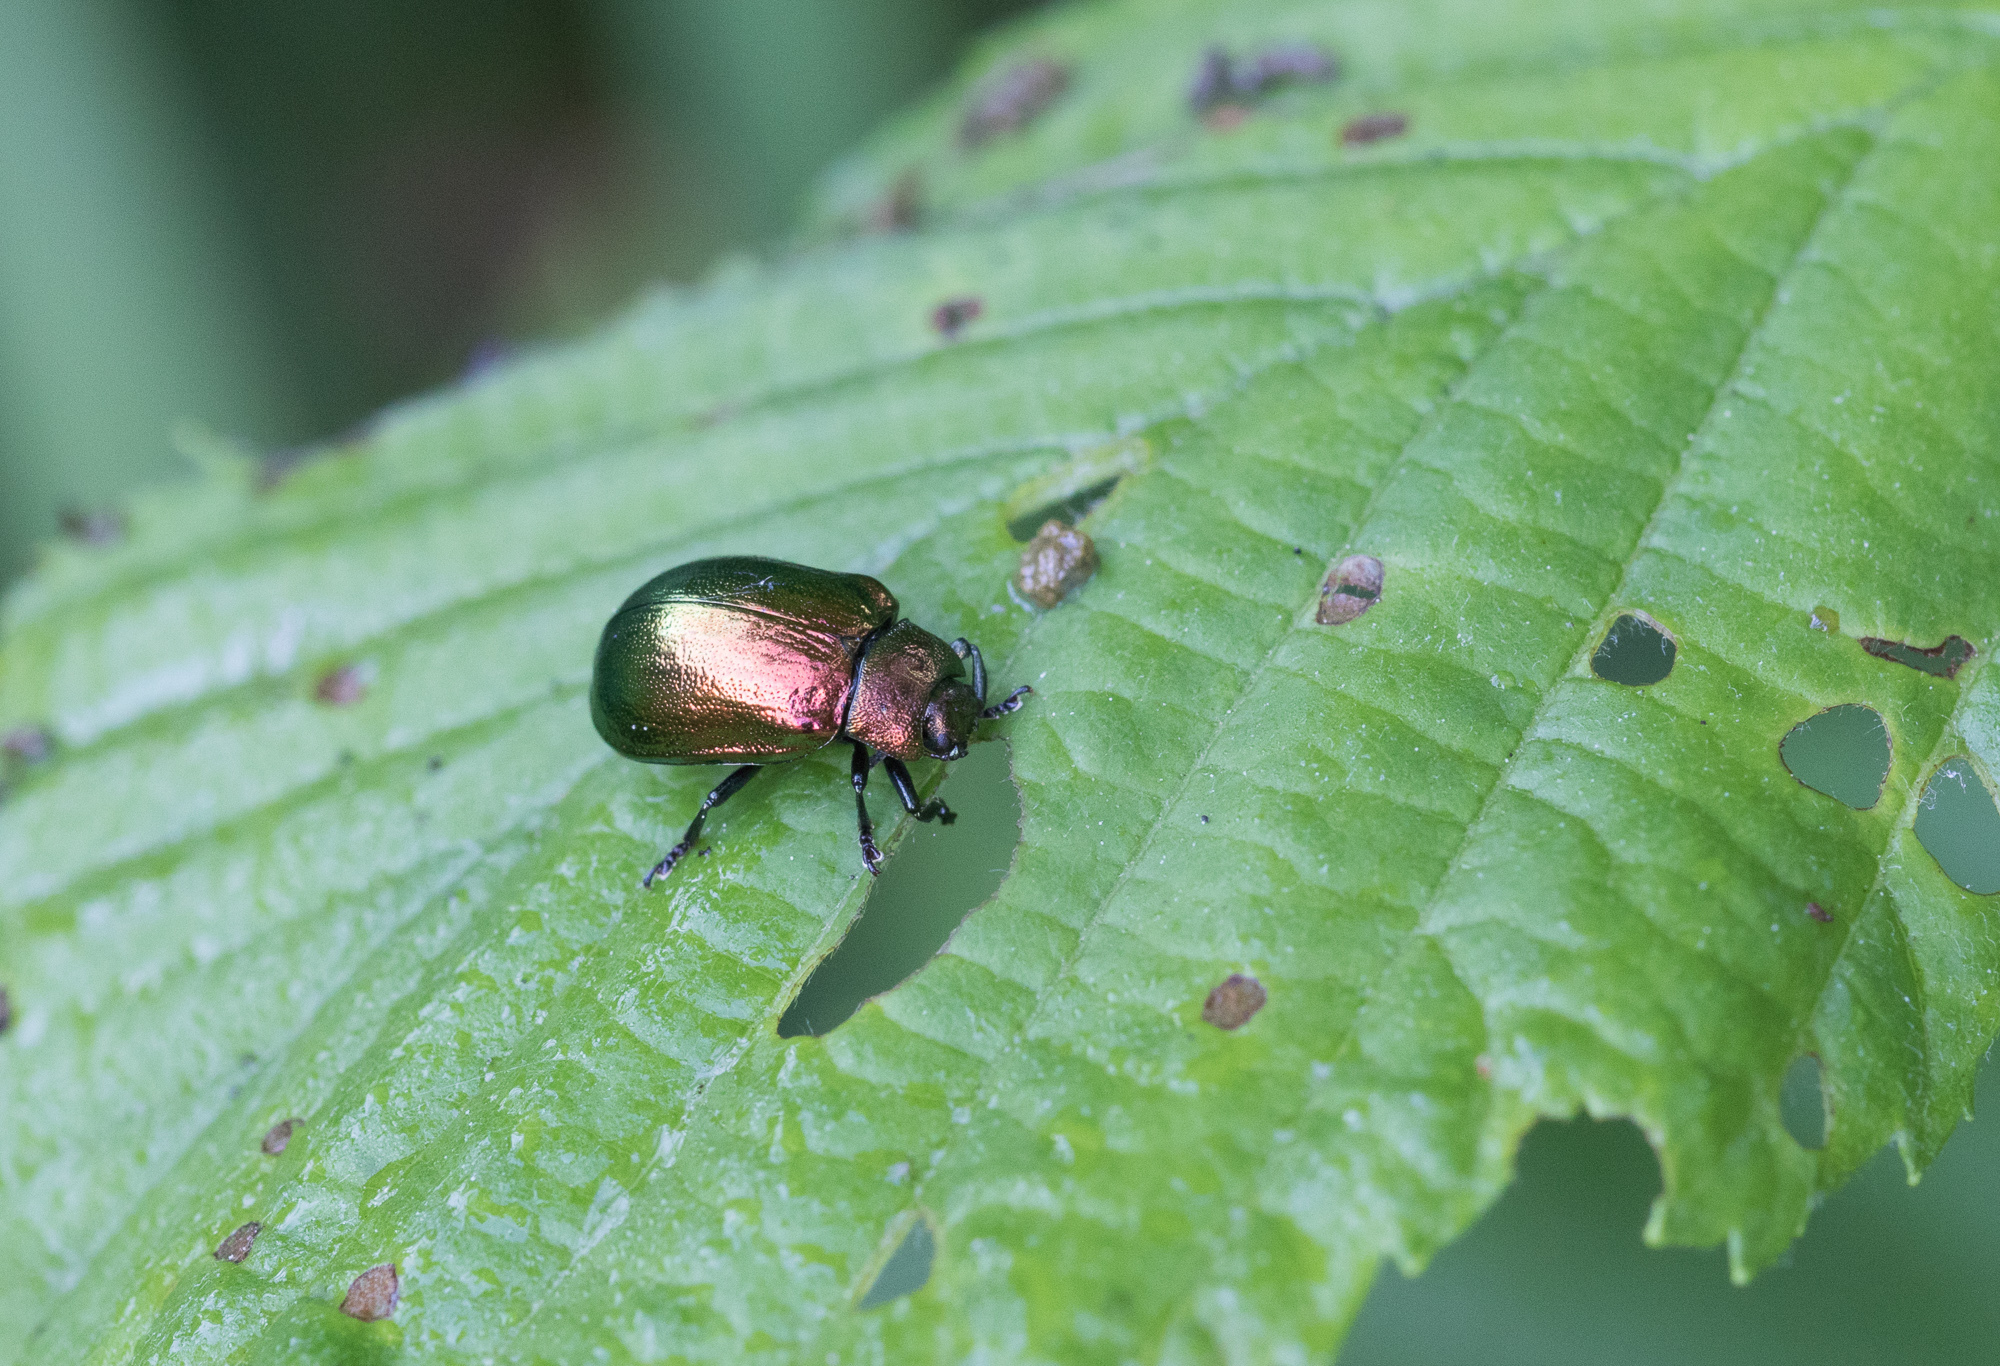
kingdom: Animalia
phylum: Arthropoda
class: Insecta
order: Coleoptera
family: Chrysomelidae
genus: Plagiosterna
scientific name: Plagiosterna aenea
